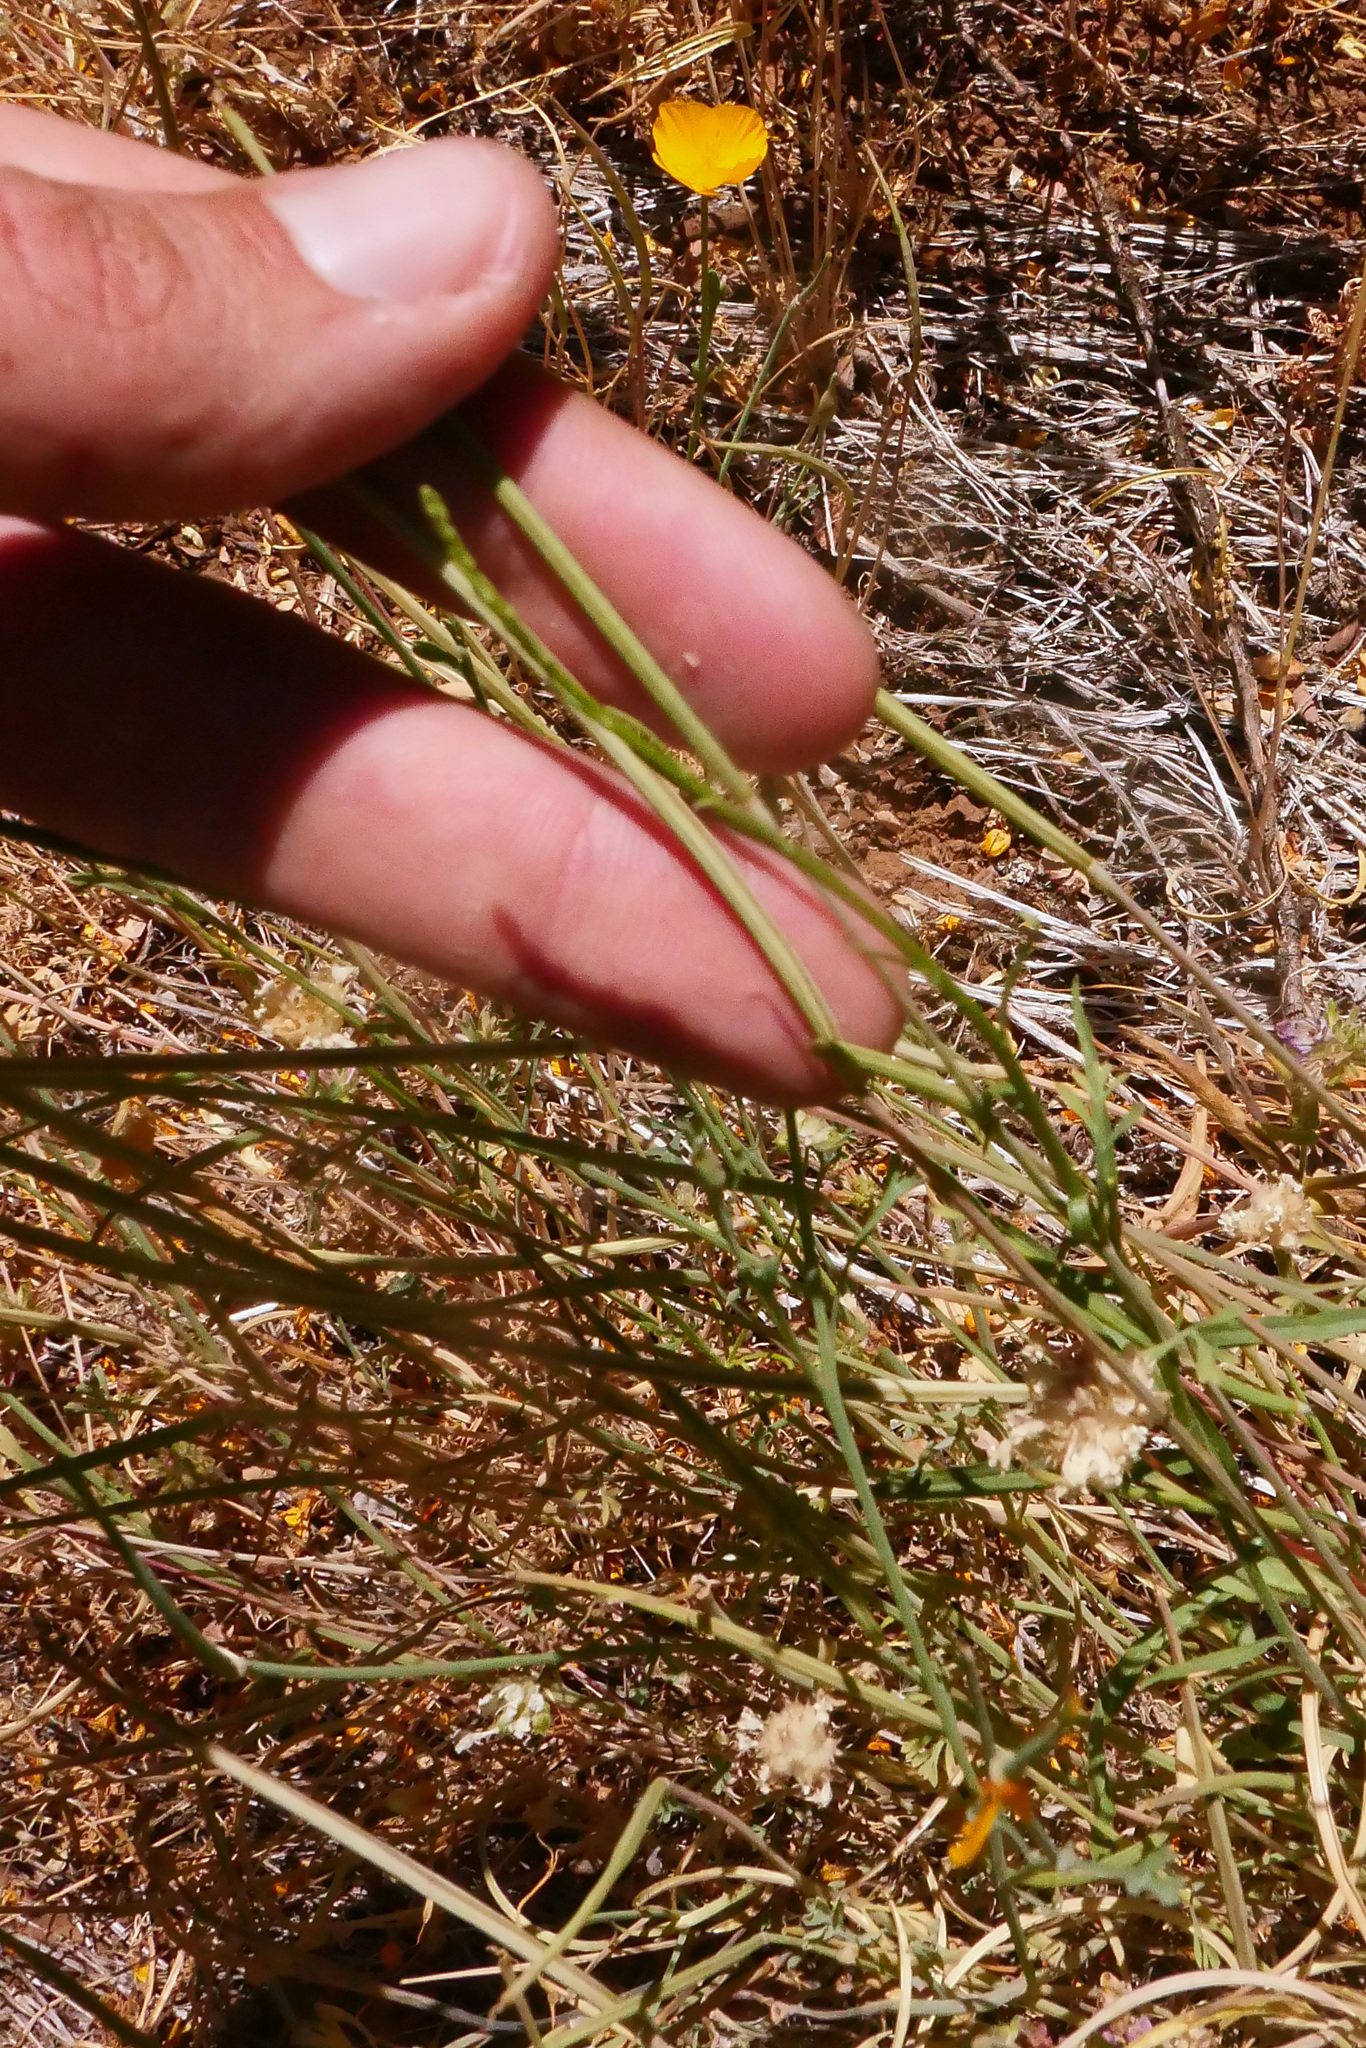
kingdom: Plantae
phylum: Tracheophyta
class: Magnoliopsida
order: Ranunculales
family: Papaveraceae
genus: Eschscholzia
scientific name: Eschscholzia caespitosa
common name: Tufted california-poppy
